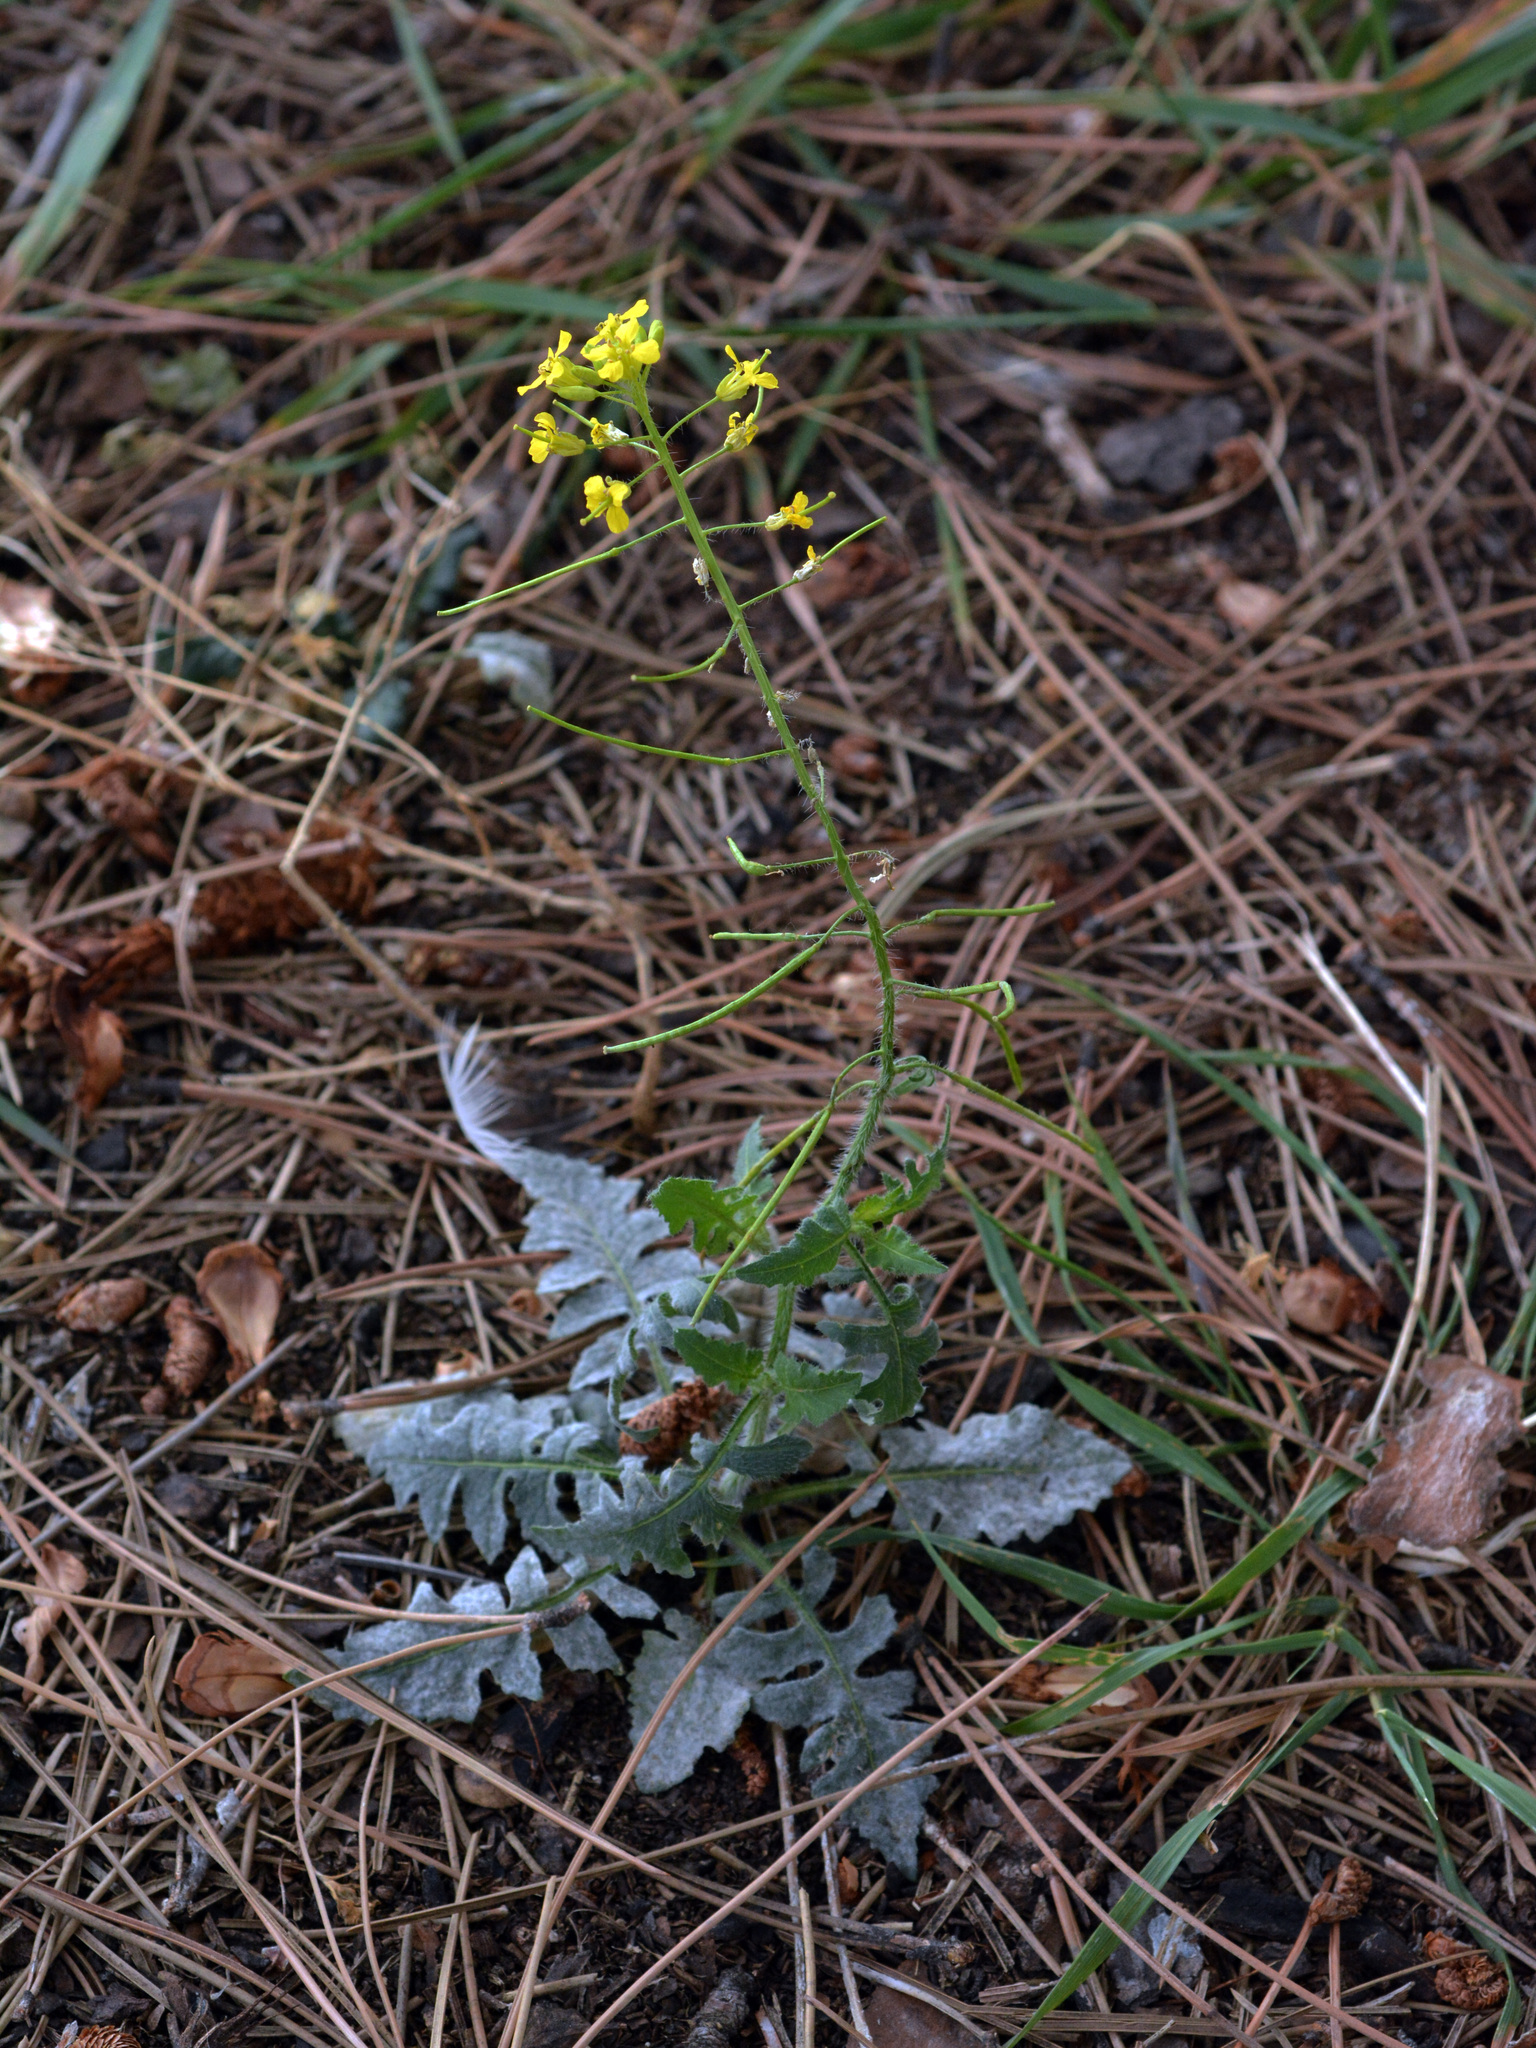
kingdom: Plantae
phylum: Tracheophyta
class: Magnoliopsida
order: Brassicales
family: Brassicaceae
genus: Sisymbrium
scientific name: Sisymbrium loeselii
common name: False london-rocket
